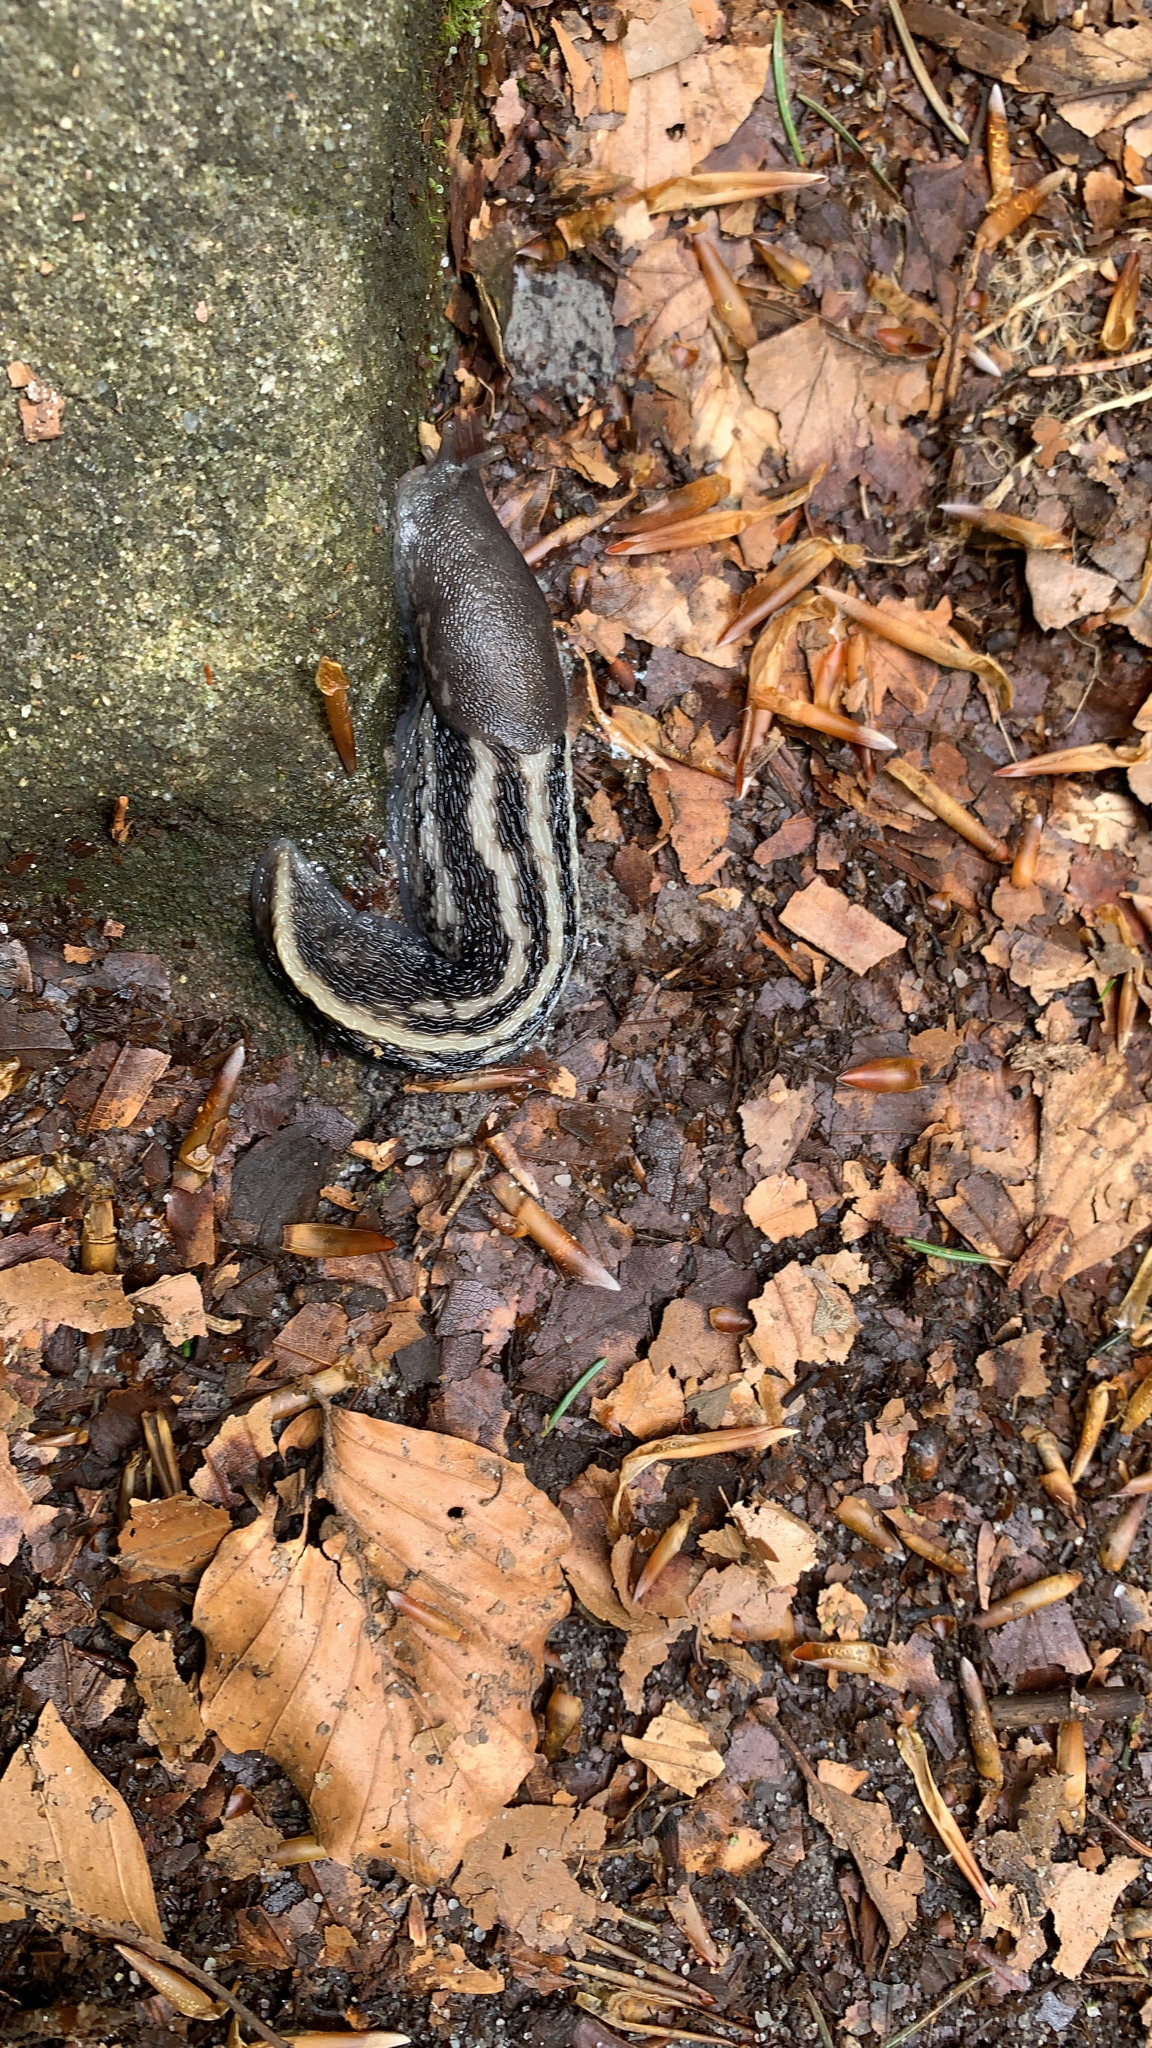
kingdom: Animalia
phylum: Mollusca
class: Gastropoda
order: Stylommatophora
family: Limacidae
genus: Limax
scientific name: Limax cinereoniger
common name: Ash-black slug
